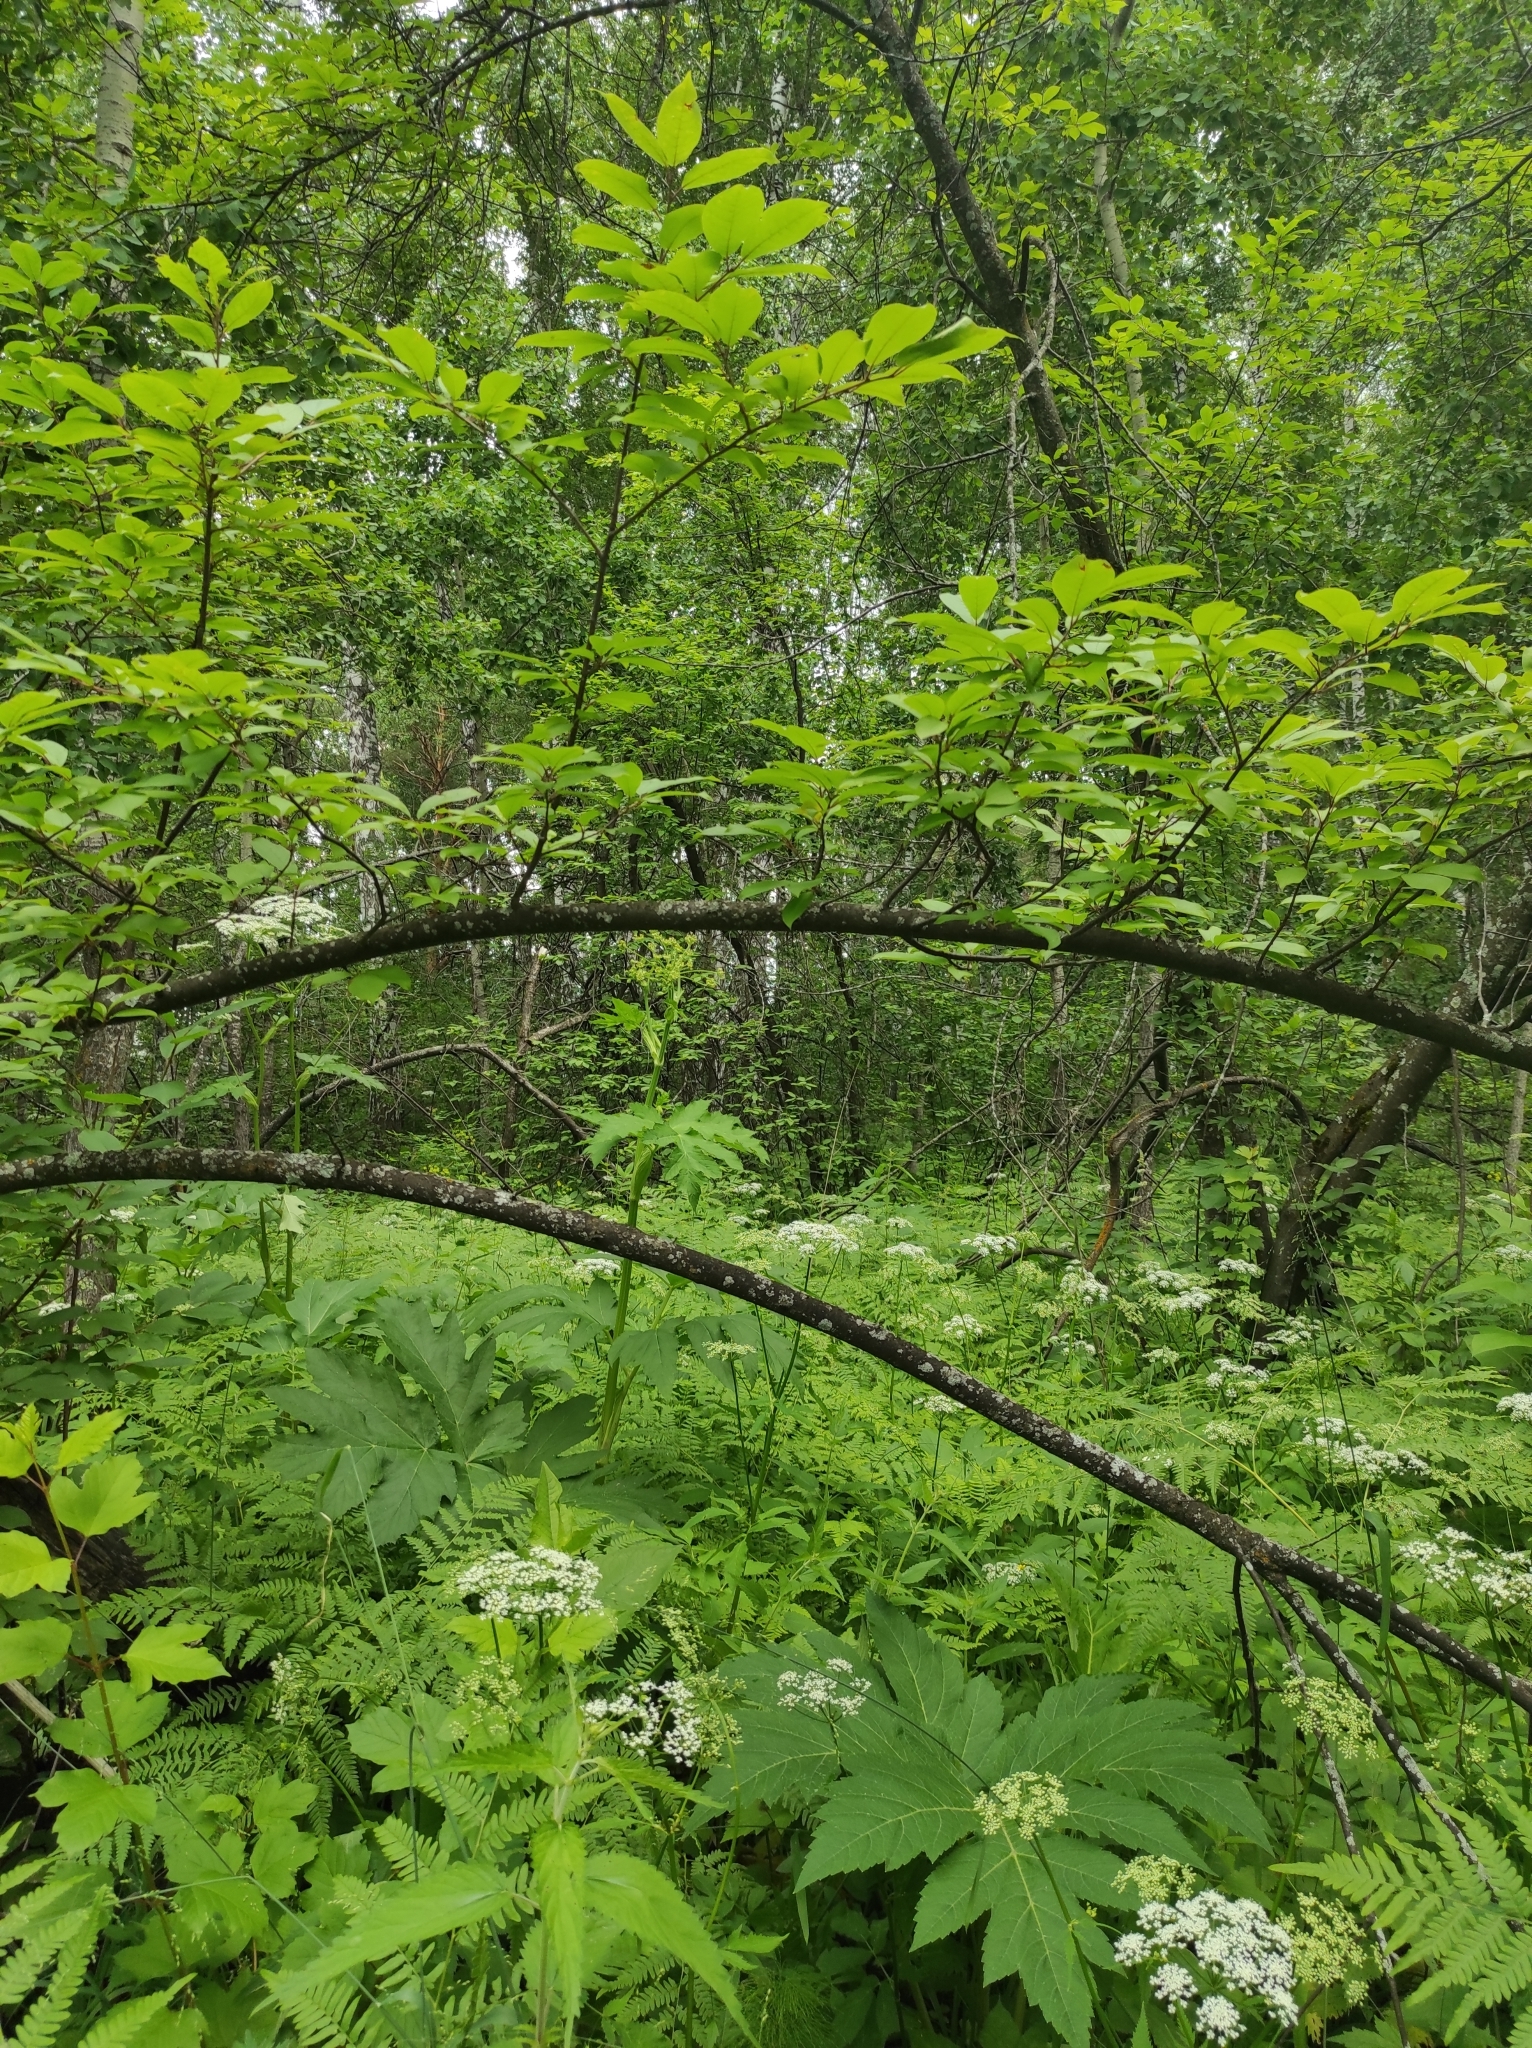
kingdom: Plantae
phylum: Tracheophyta
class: Magnoliopsida
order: Rosales
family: Rosaceae
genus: Prunus
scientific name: Prunus padus
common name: Bird cherry
